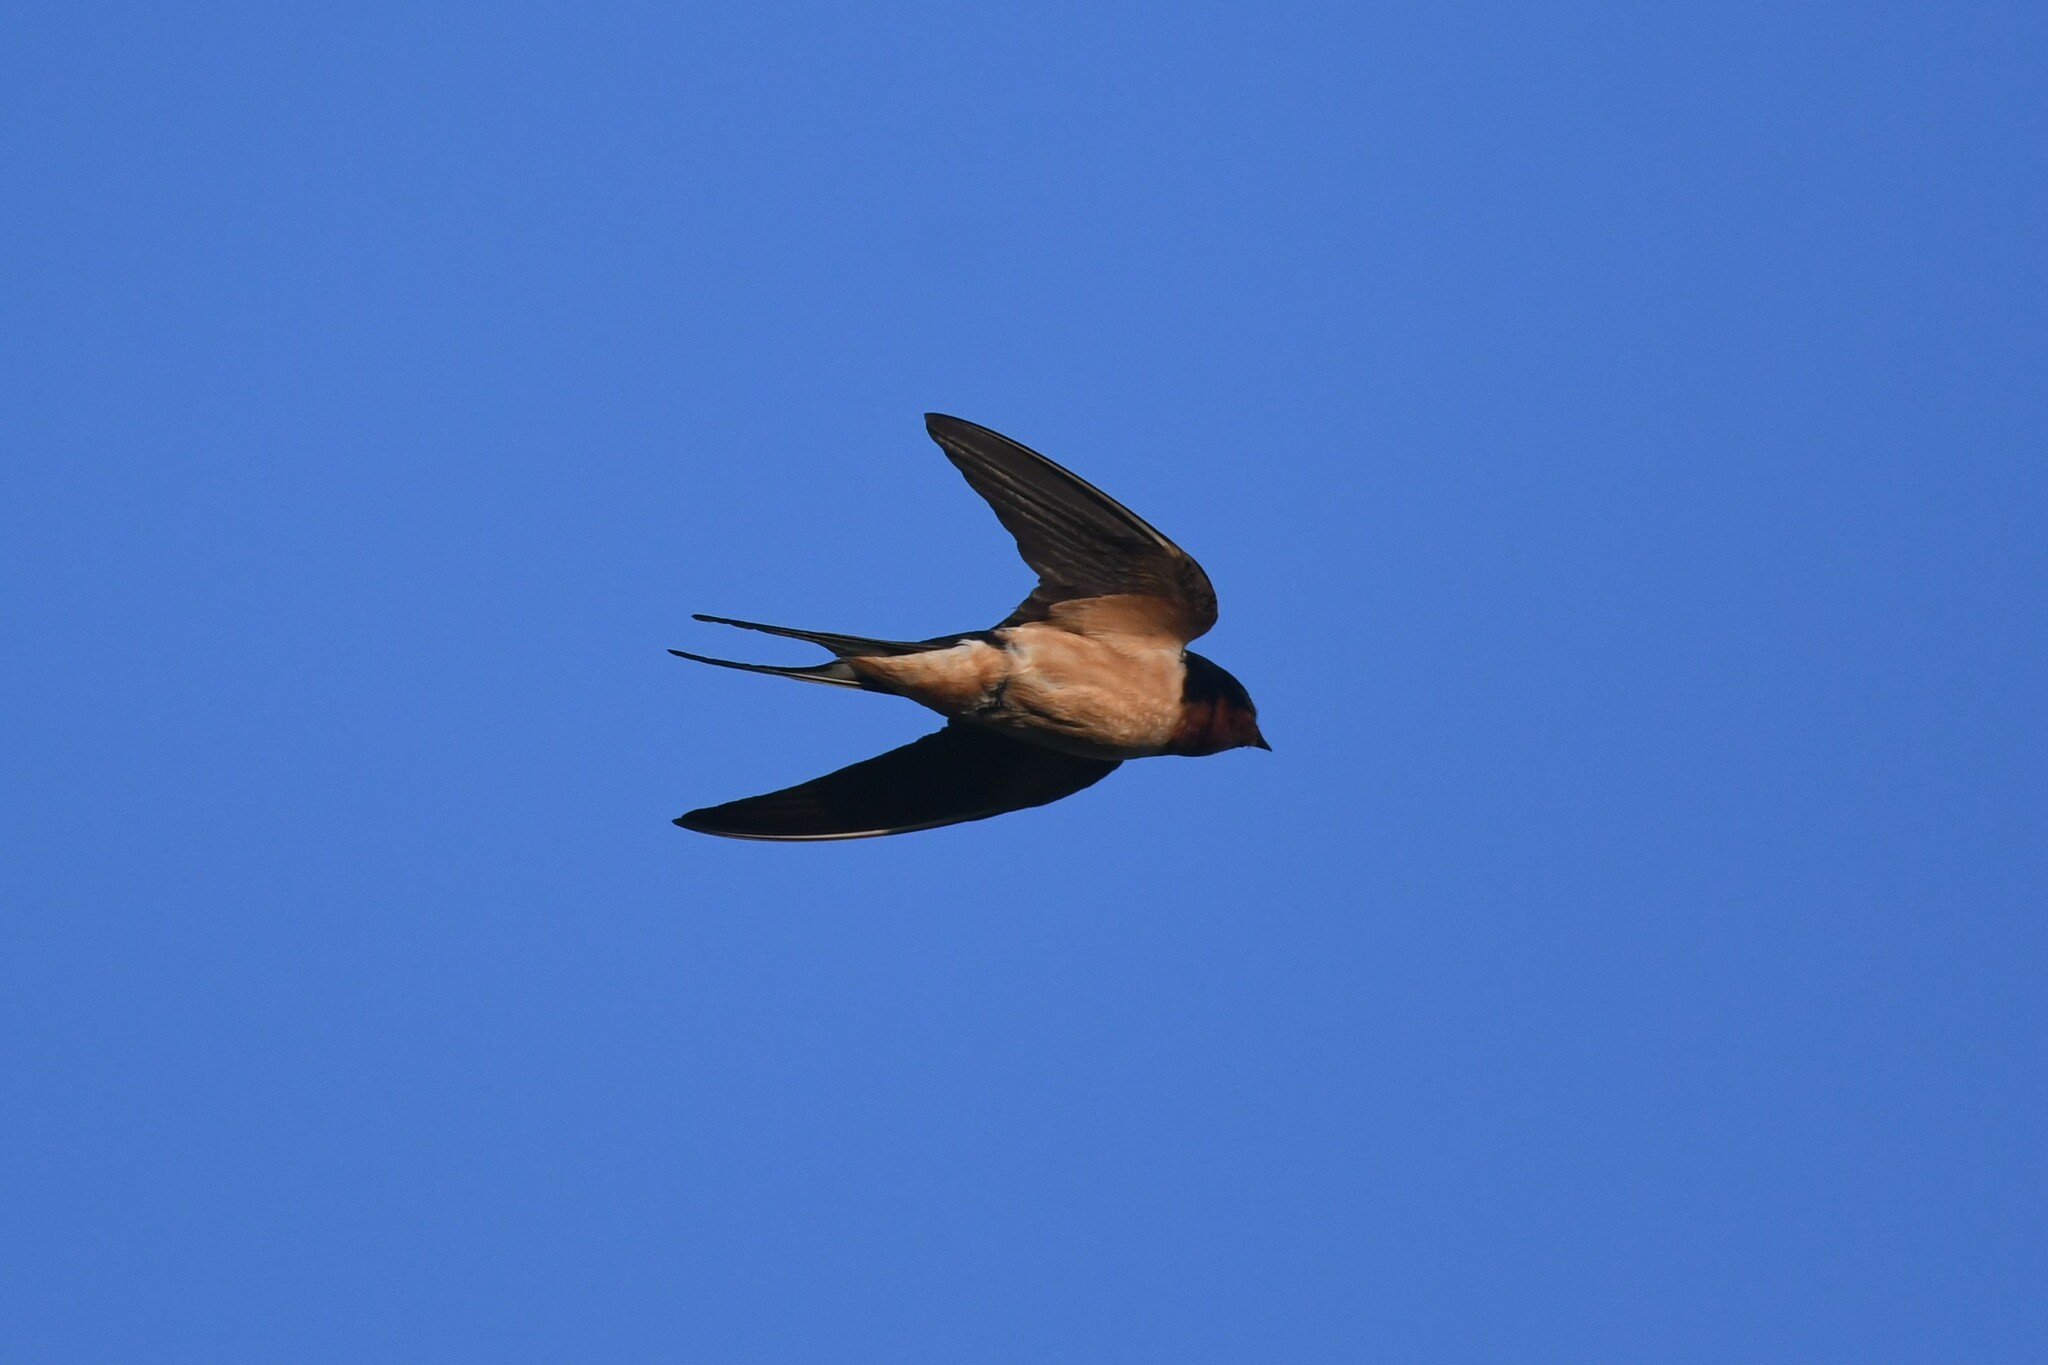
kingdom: Animalia
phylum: Chordata
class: Aves
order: Passeriformes
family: Hirundinidae
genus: Hirundo
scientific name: Hirundo rustica
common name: Barn swallow
